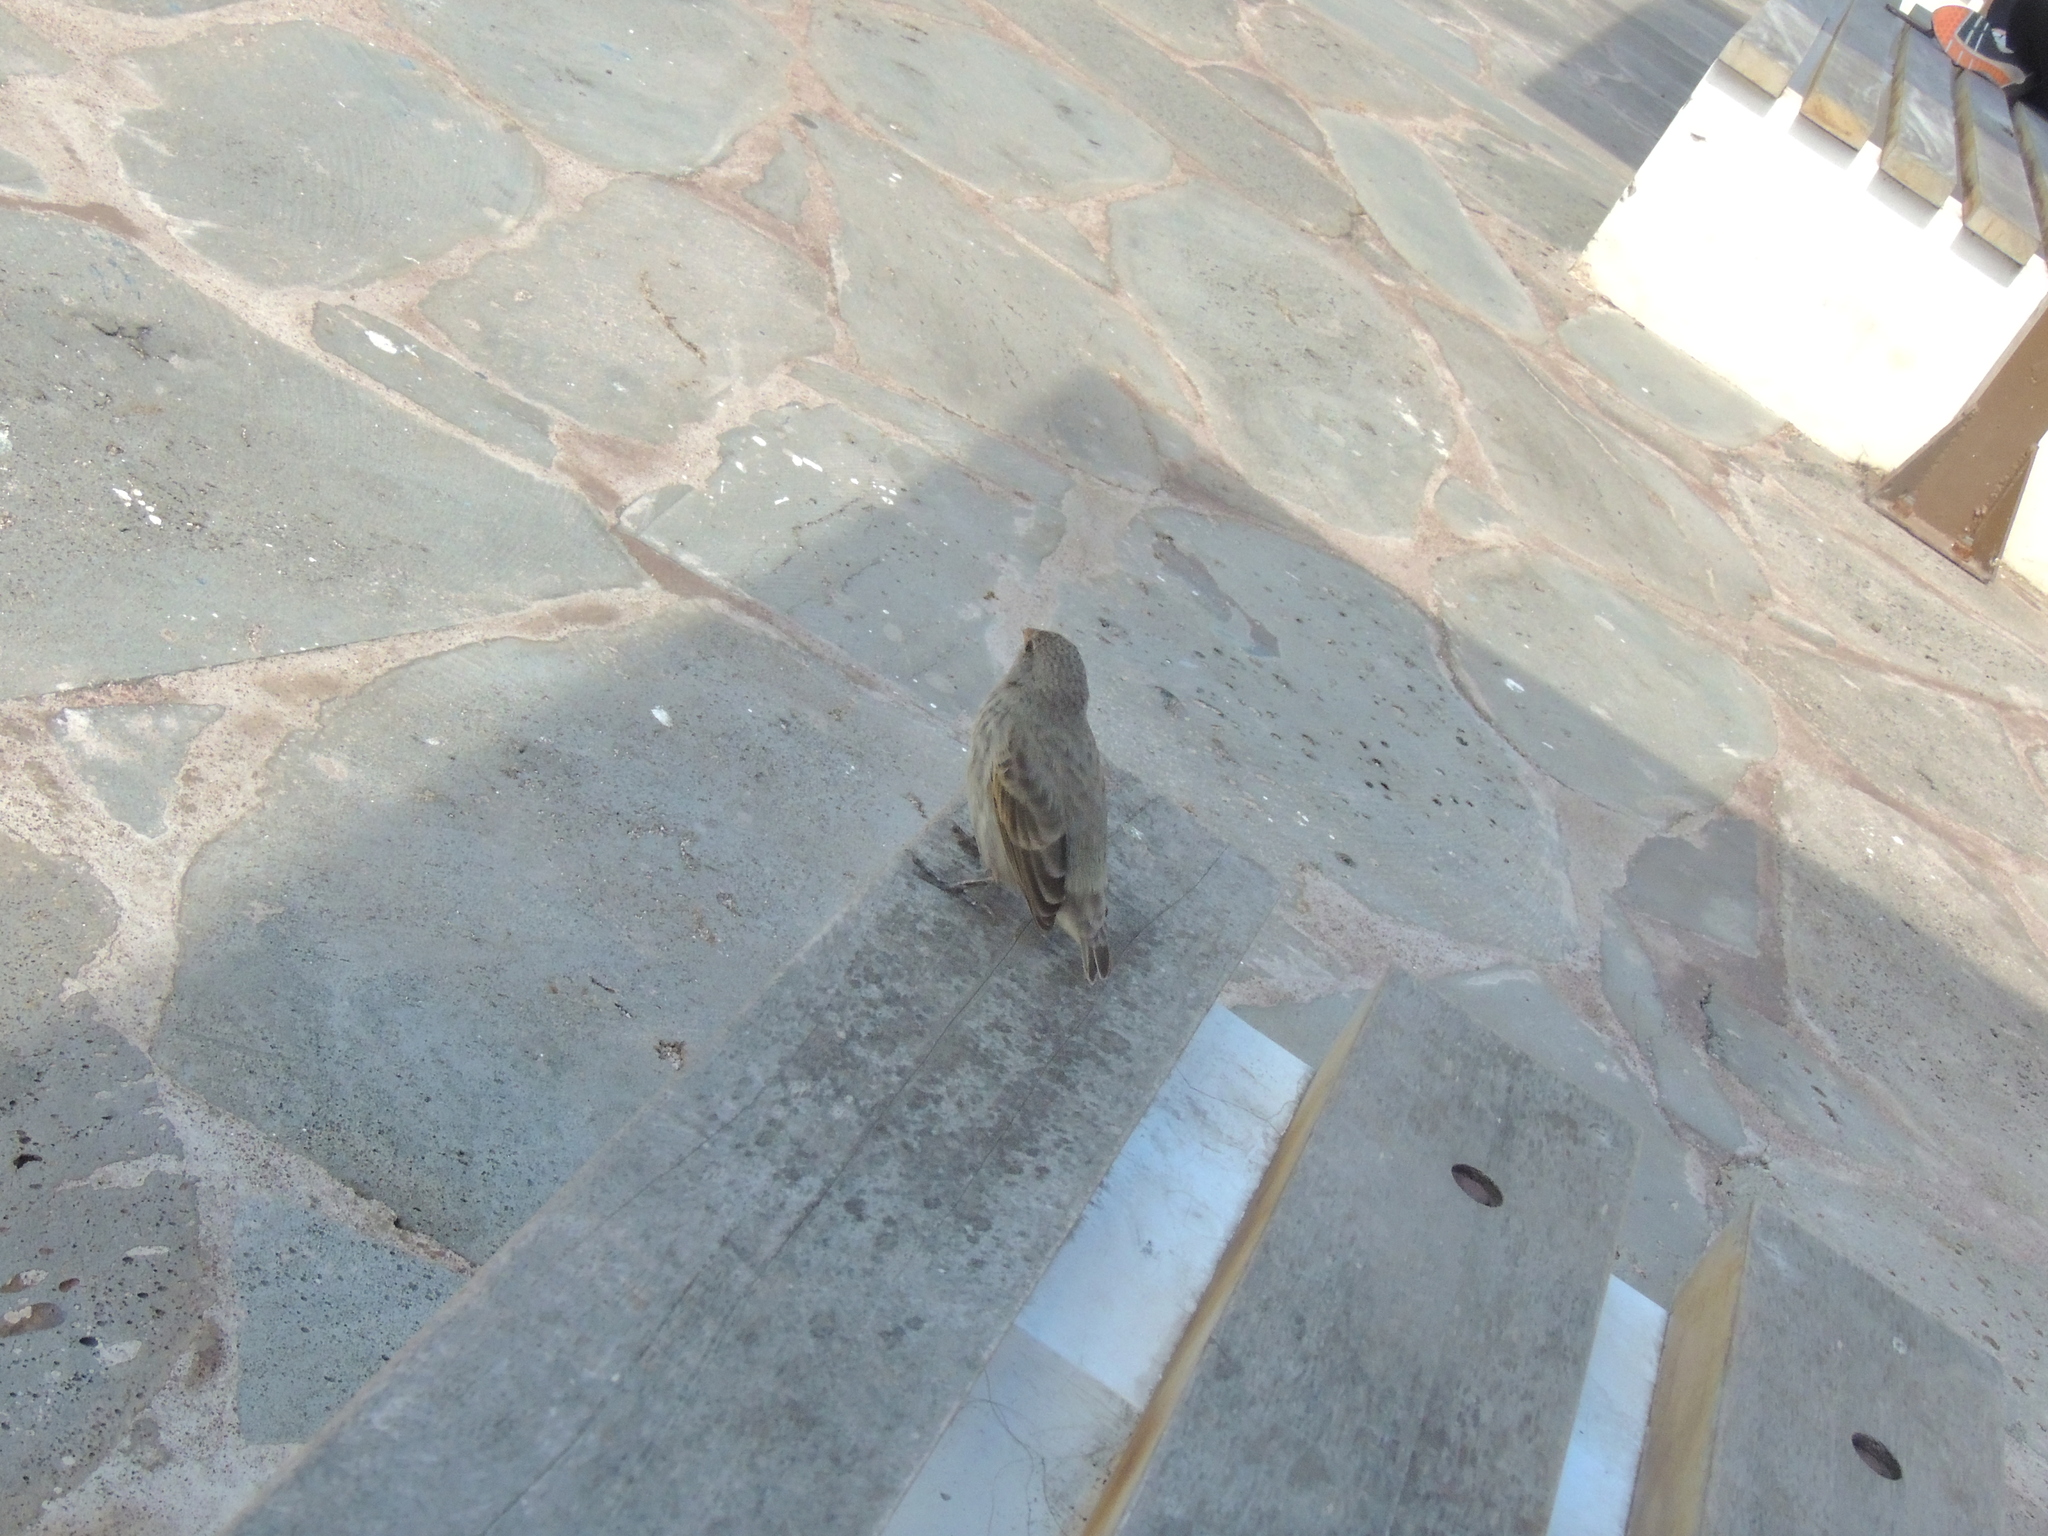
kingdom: Animalia
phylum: Chordata
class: Aves
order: Passeriformes
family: Thraupidae
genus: Geospiza
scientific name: Geospiza fuliginosa
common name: Small ground finch
